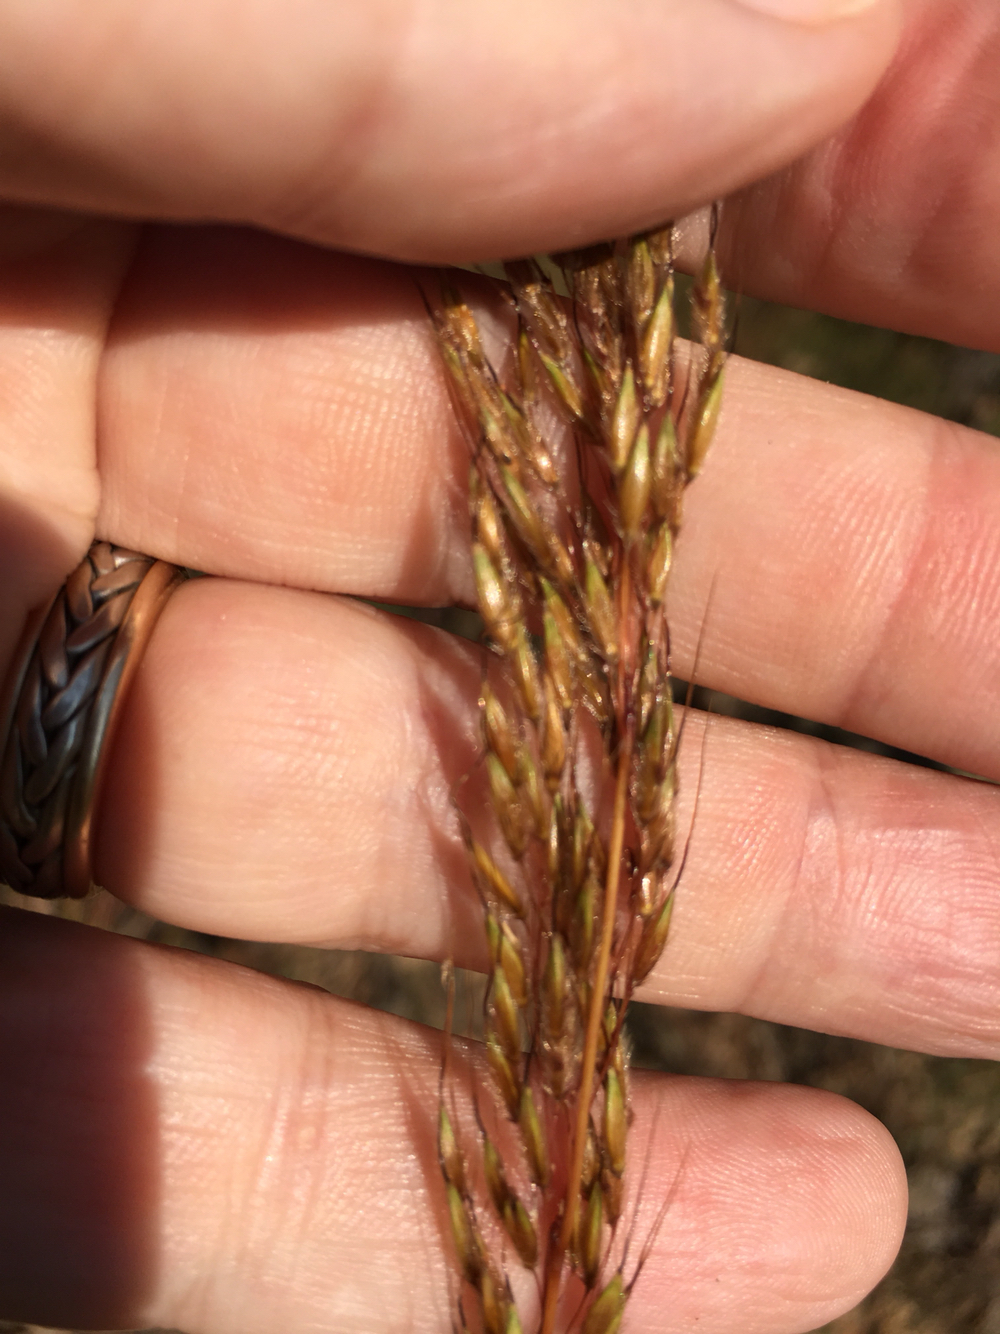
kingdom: Plantae
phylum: Tracheophyta
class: Liliopsida
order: Poales
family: Poaceae
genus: Sorghastrum
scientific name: Sorghastrum nutans
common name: Indian grass
